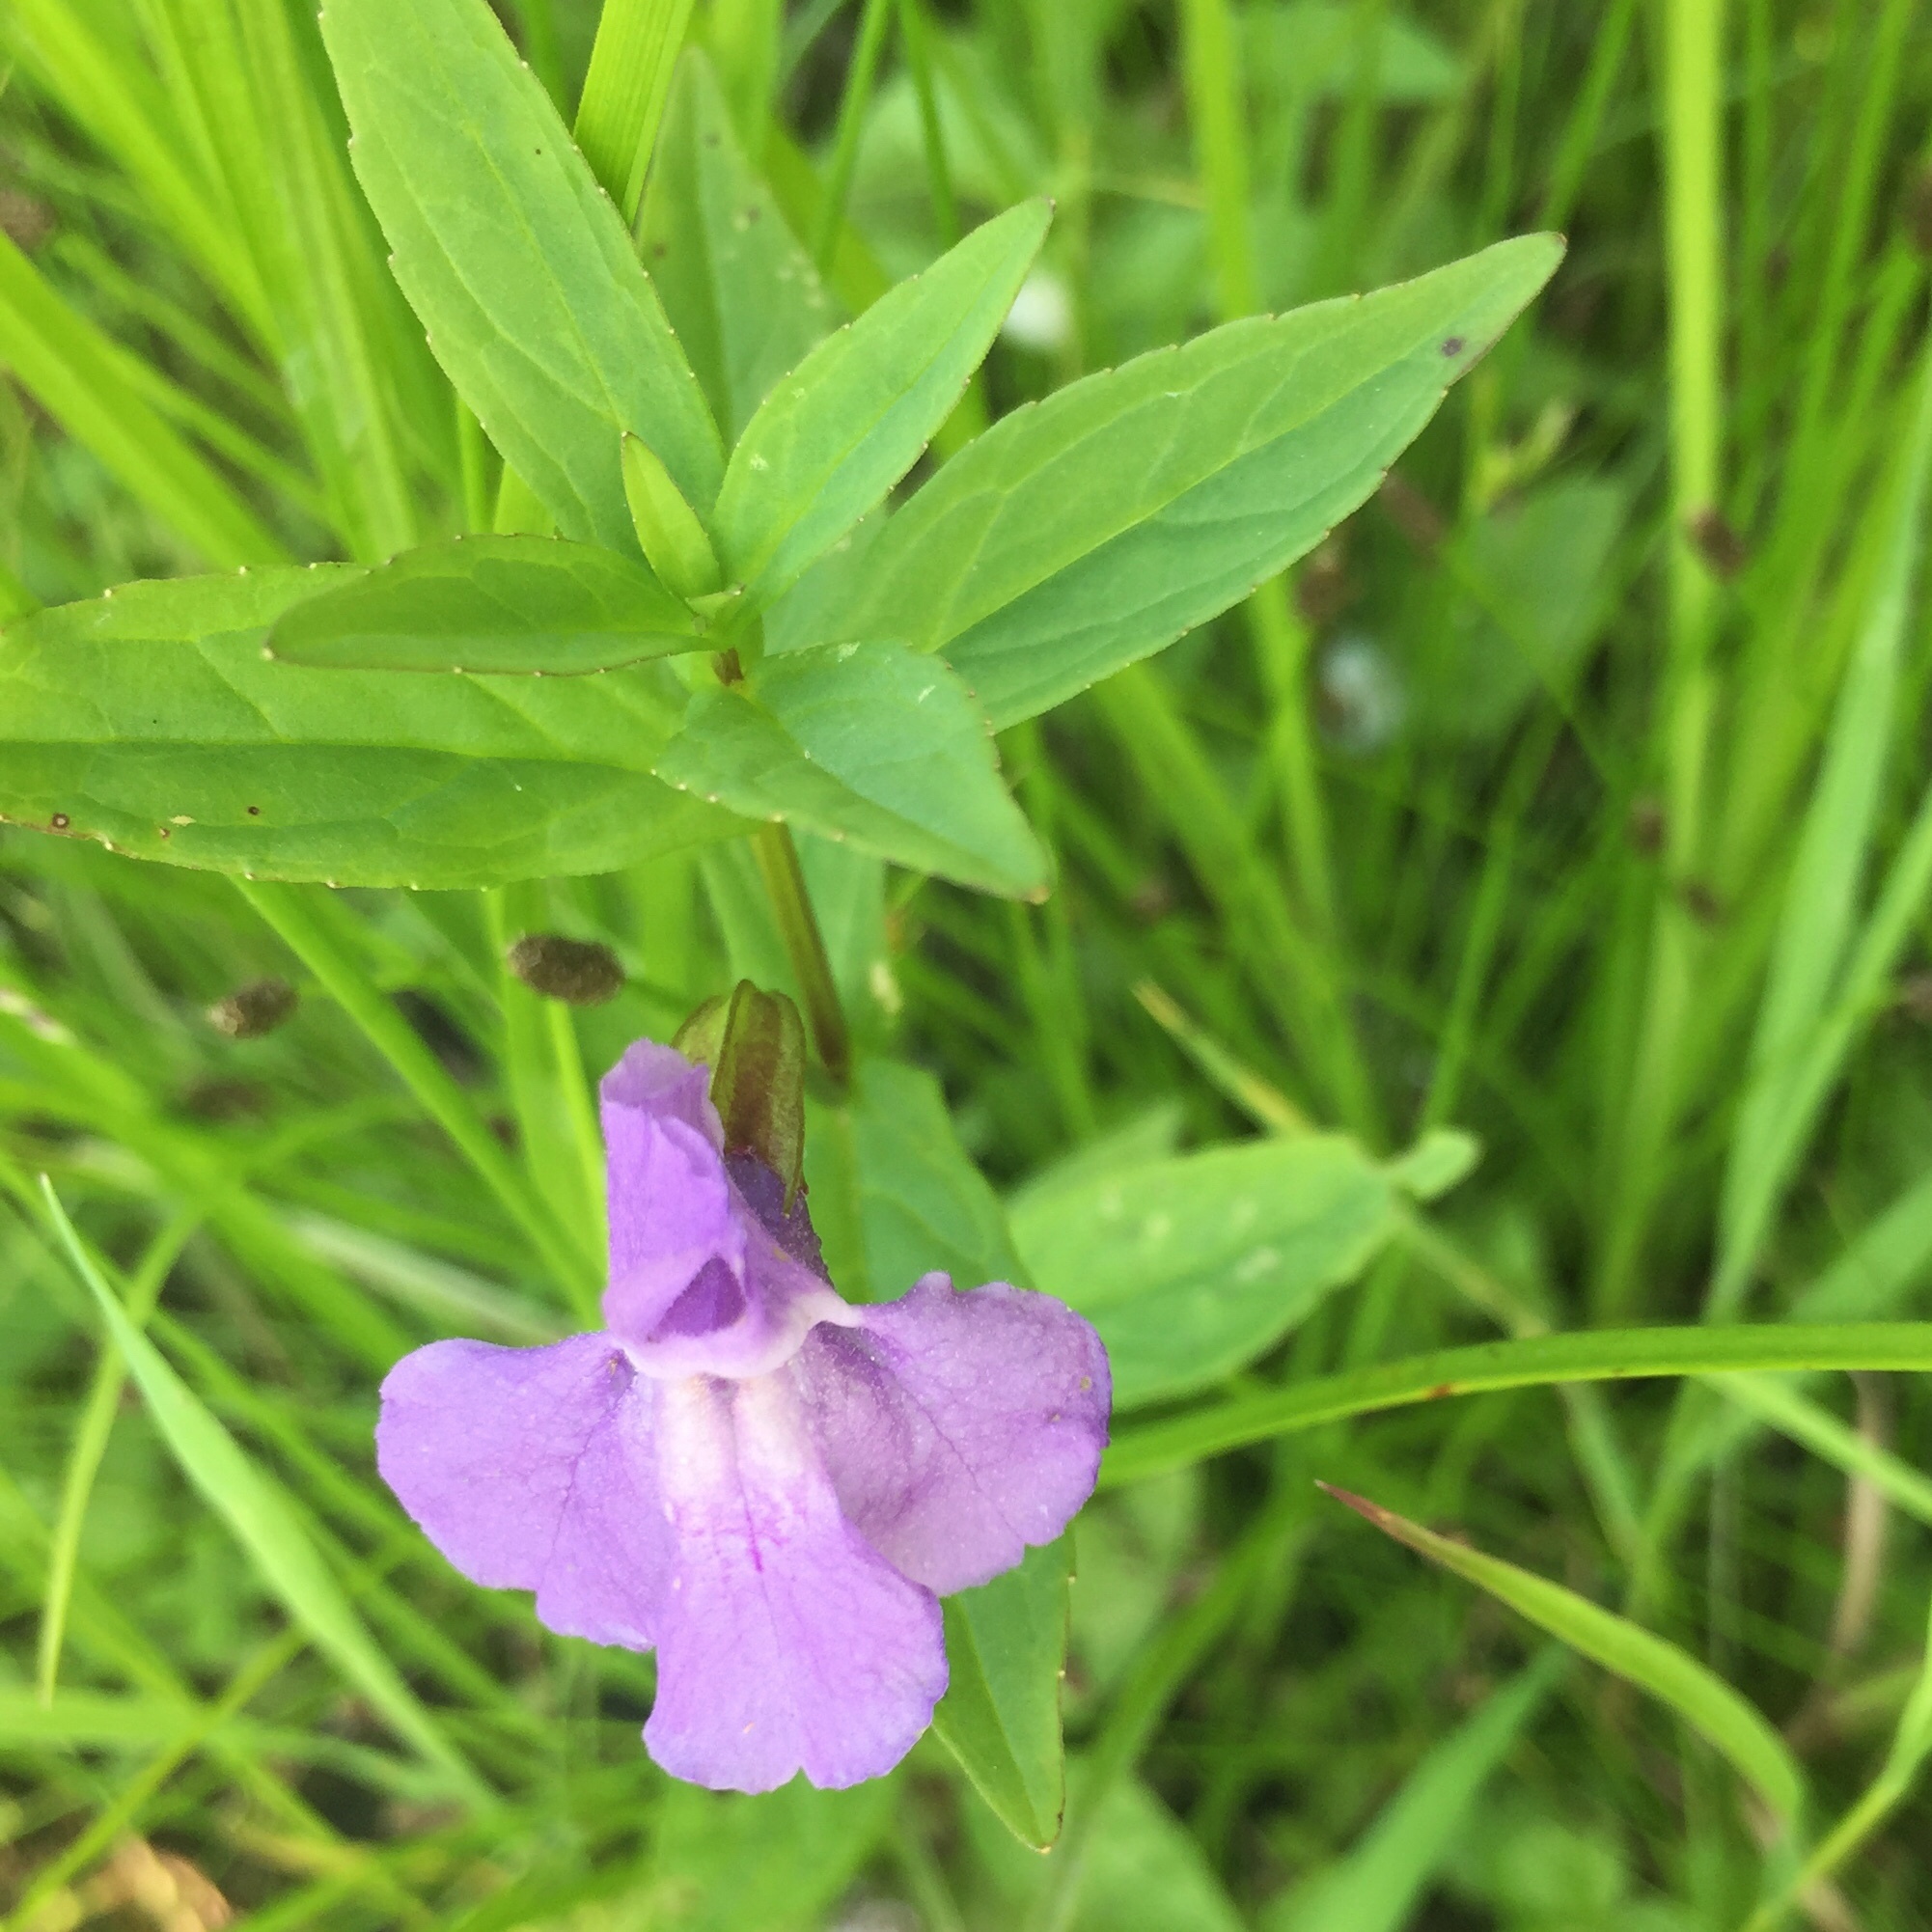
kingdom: Plantae
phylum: Tracheophyta
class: Magnoliopsida
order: Lamiales
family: Phrymaceae
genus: Mimulus
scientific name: Mimulus ringens
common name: Allegheny monkeyflower
